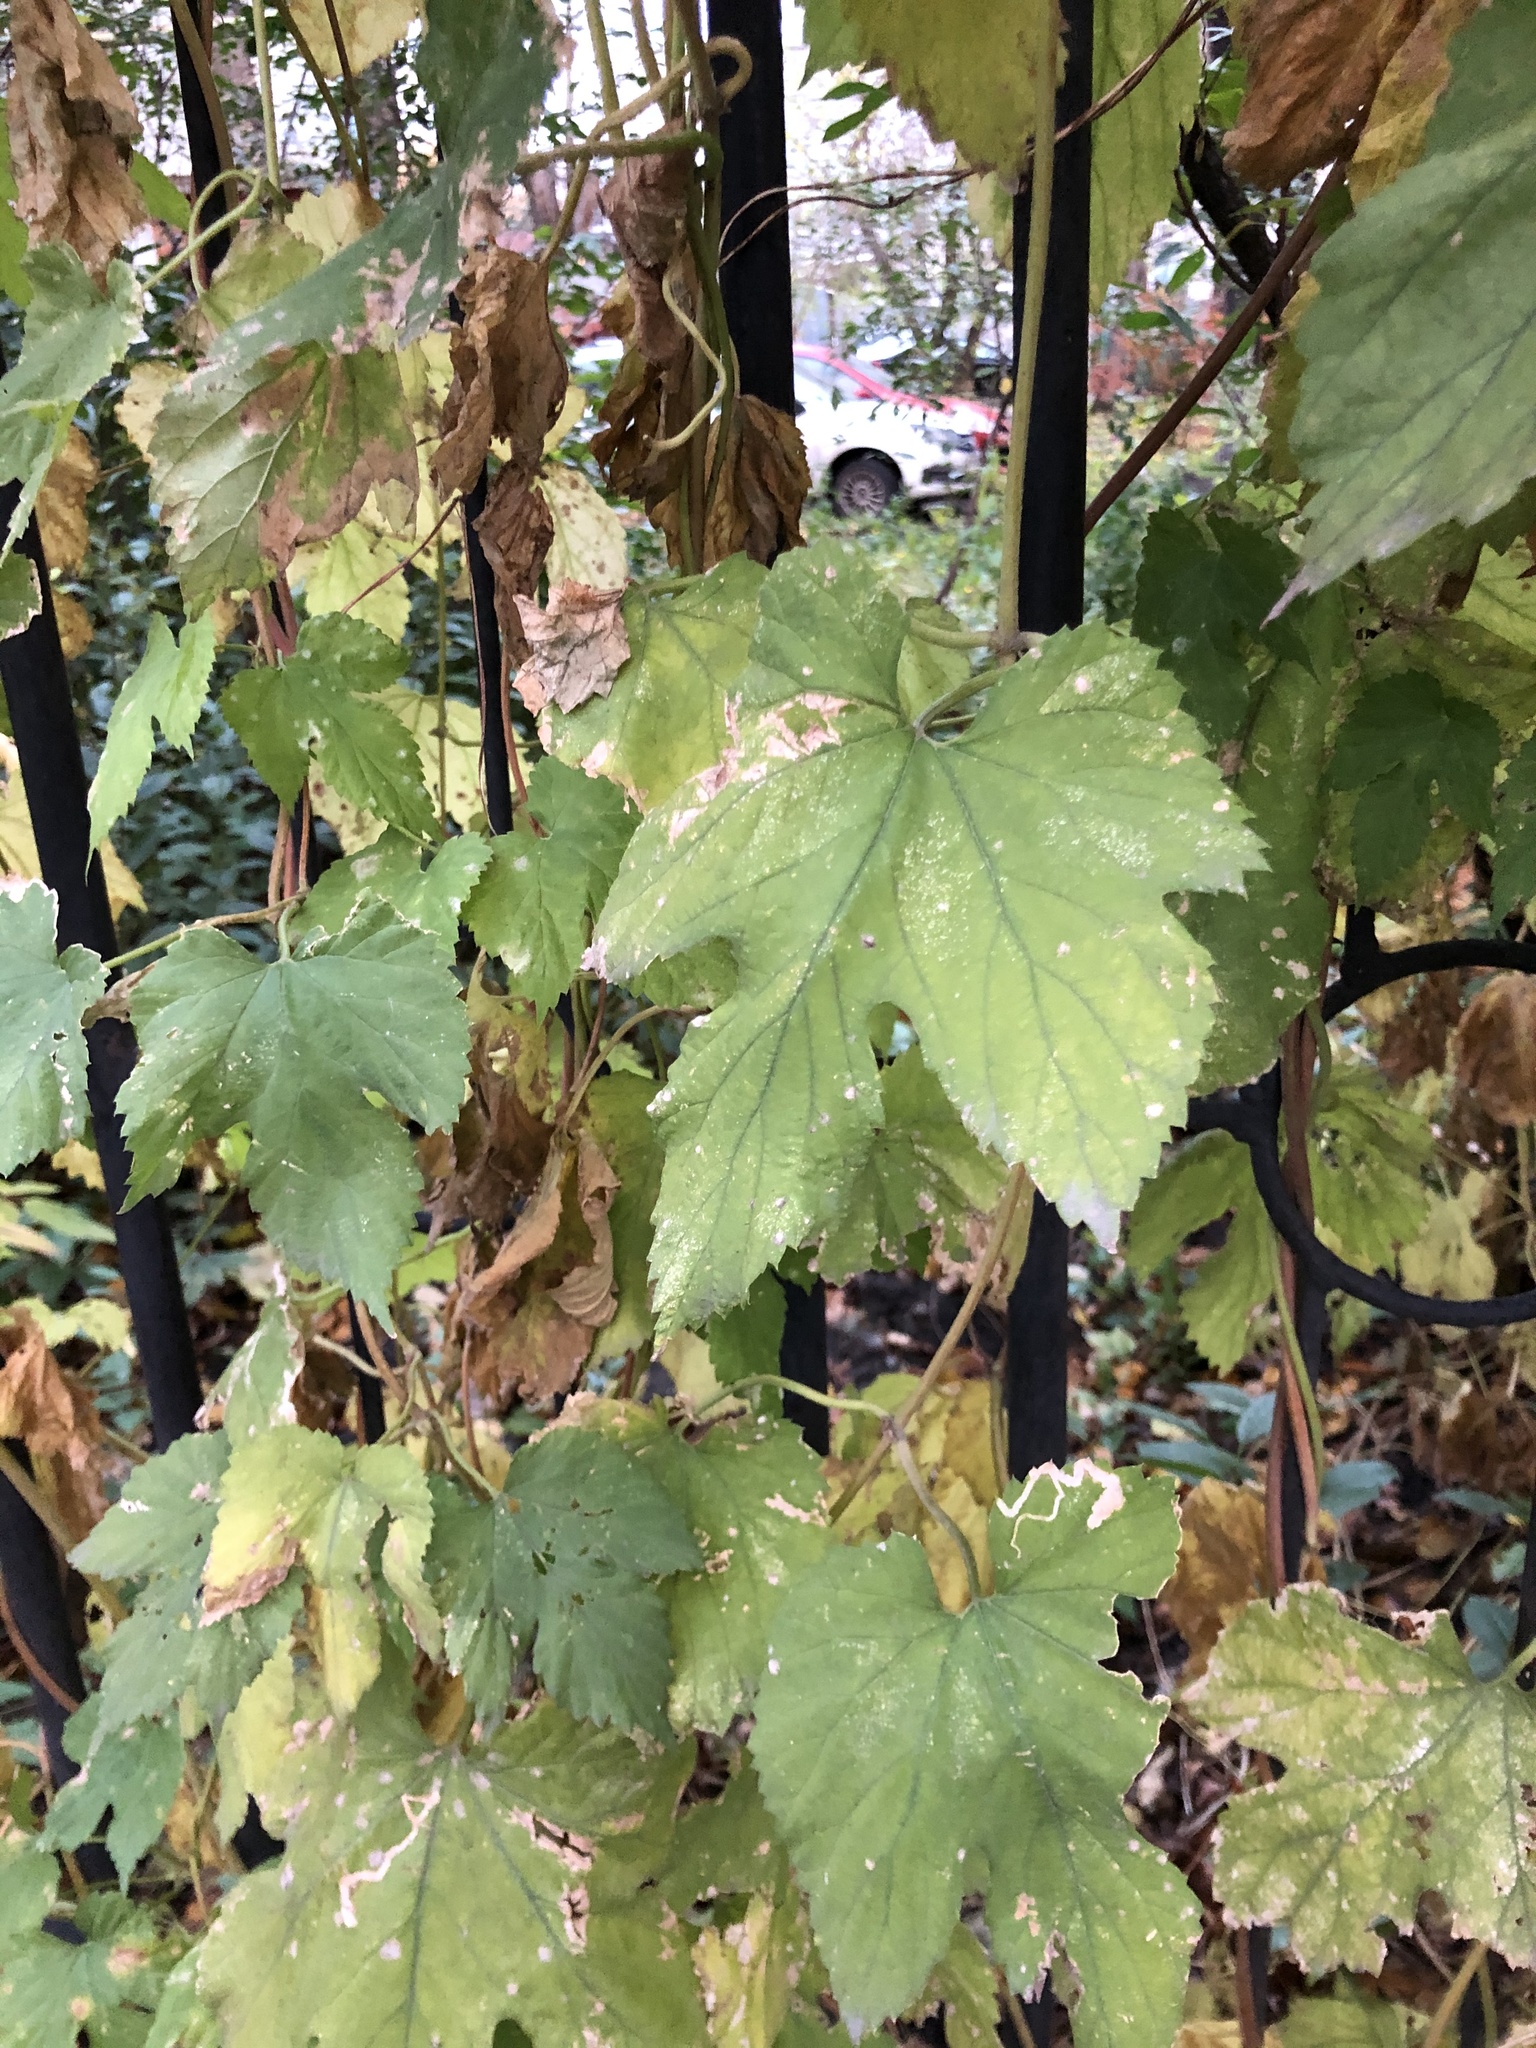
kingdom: Plantae
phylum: Tracheophyta
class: Magnoliopsida
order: Rosales
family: Cannabaceae
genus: Humulus
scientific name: Humulus lupulus
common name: Hop
